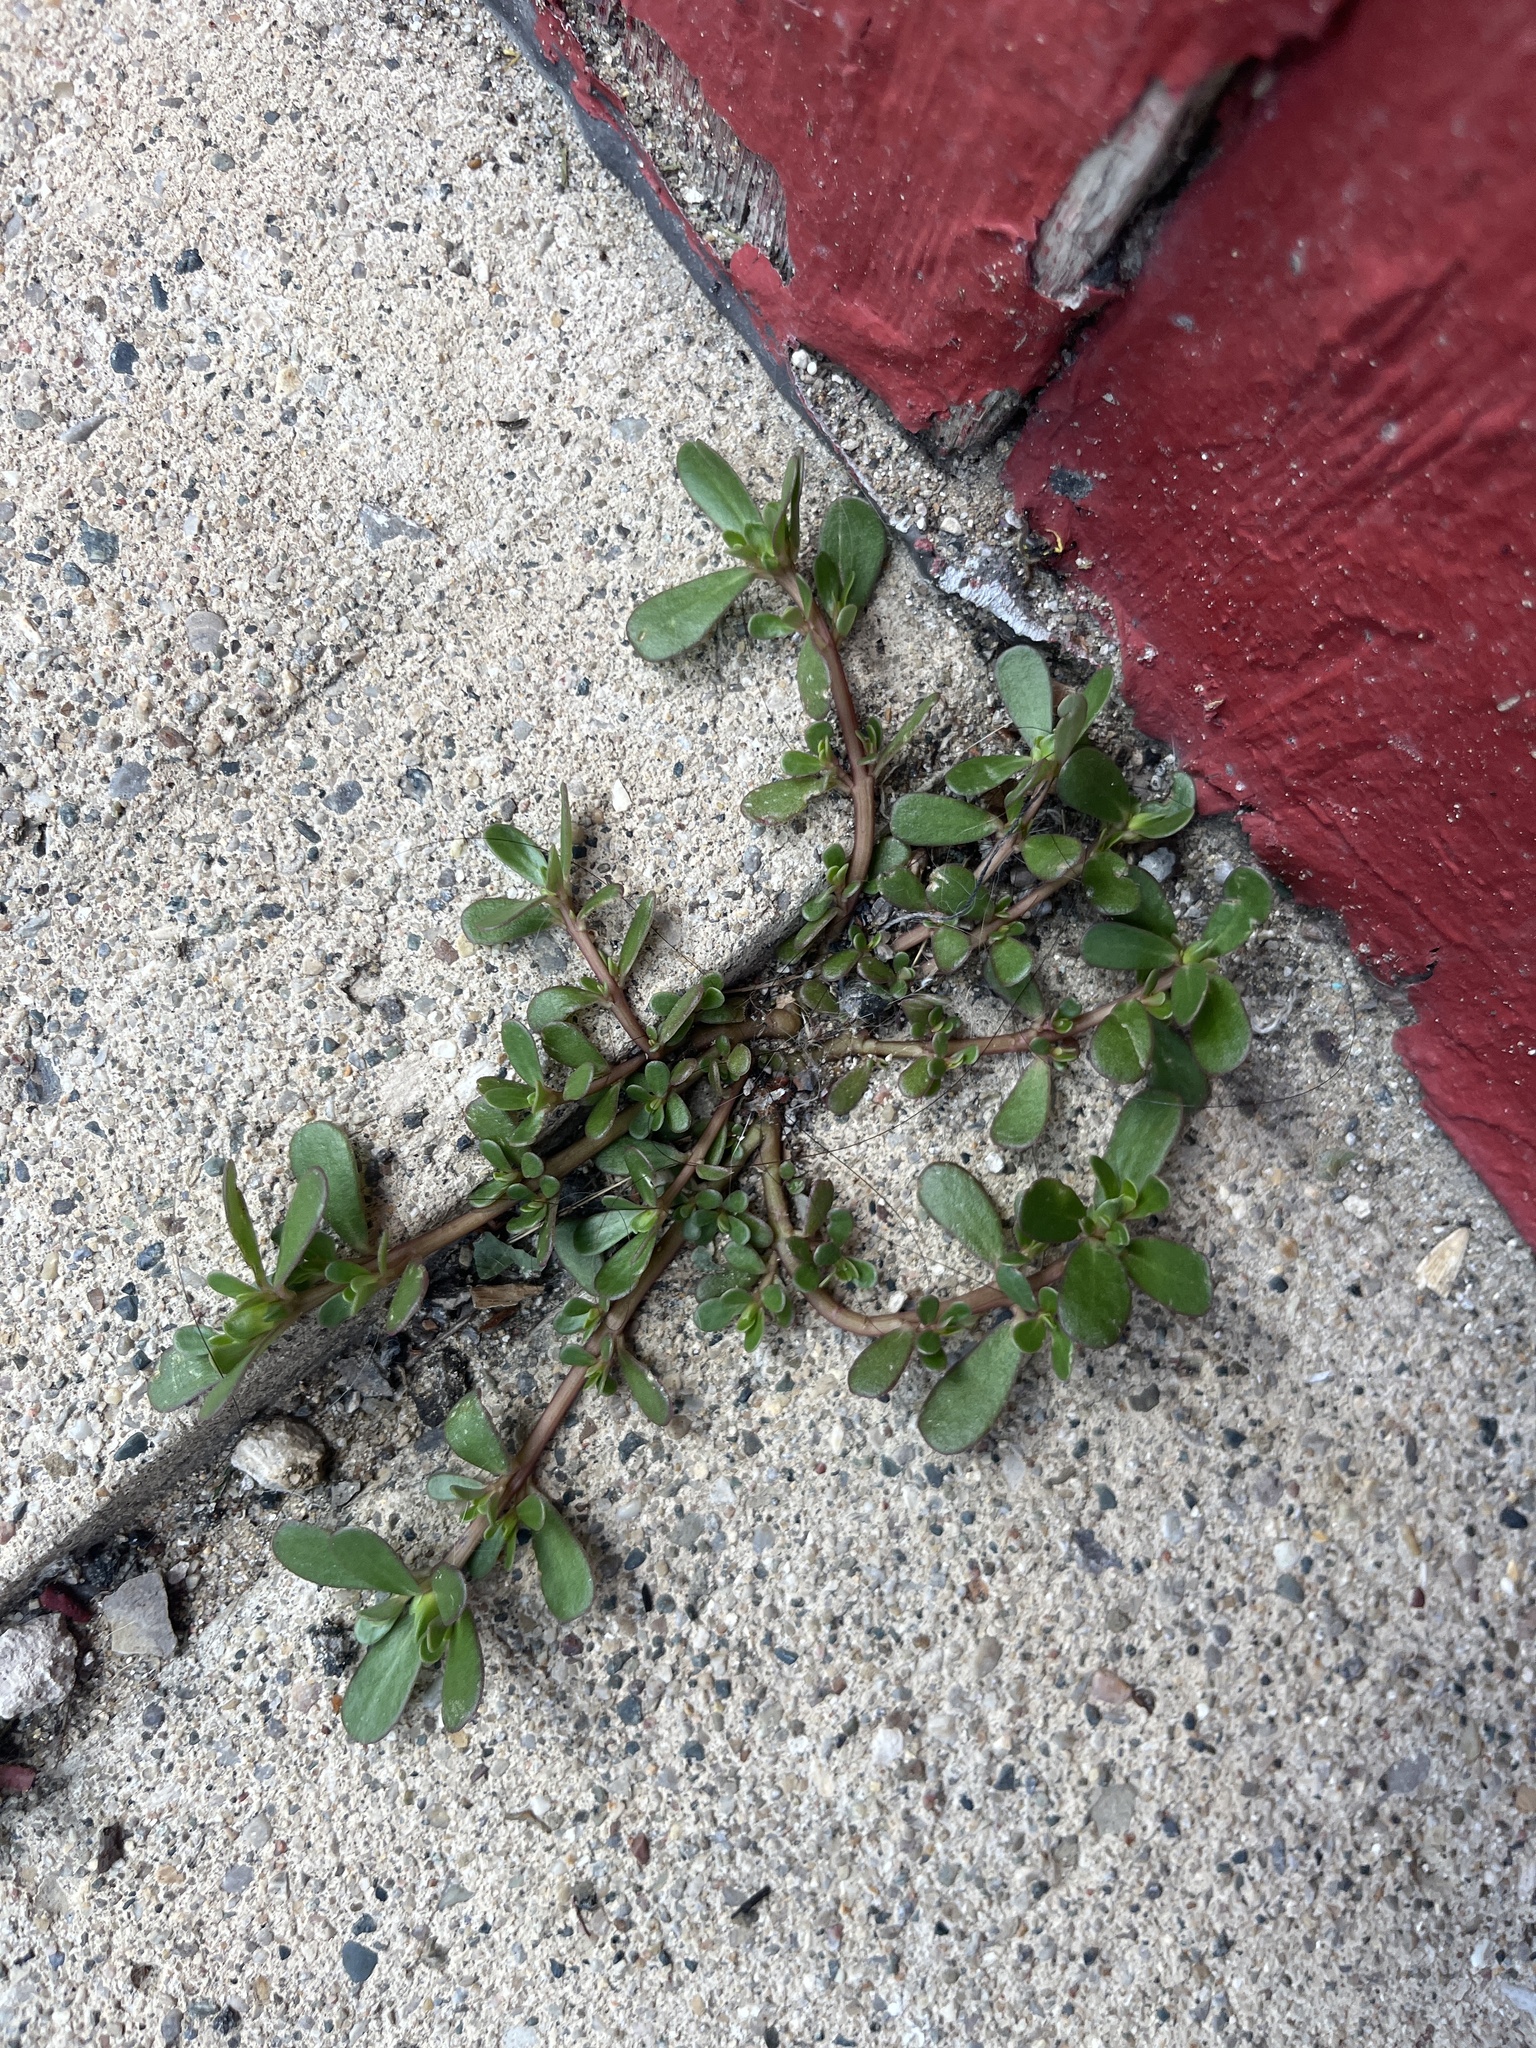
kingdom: Plantae
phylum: Tracheophyta
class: Magnoliopsida
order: Caryophyllales
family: Portulacaceae
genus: Portulaca
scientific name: Portulaca oleracea
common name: Common purslane
